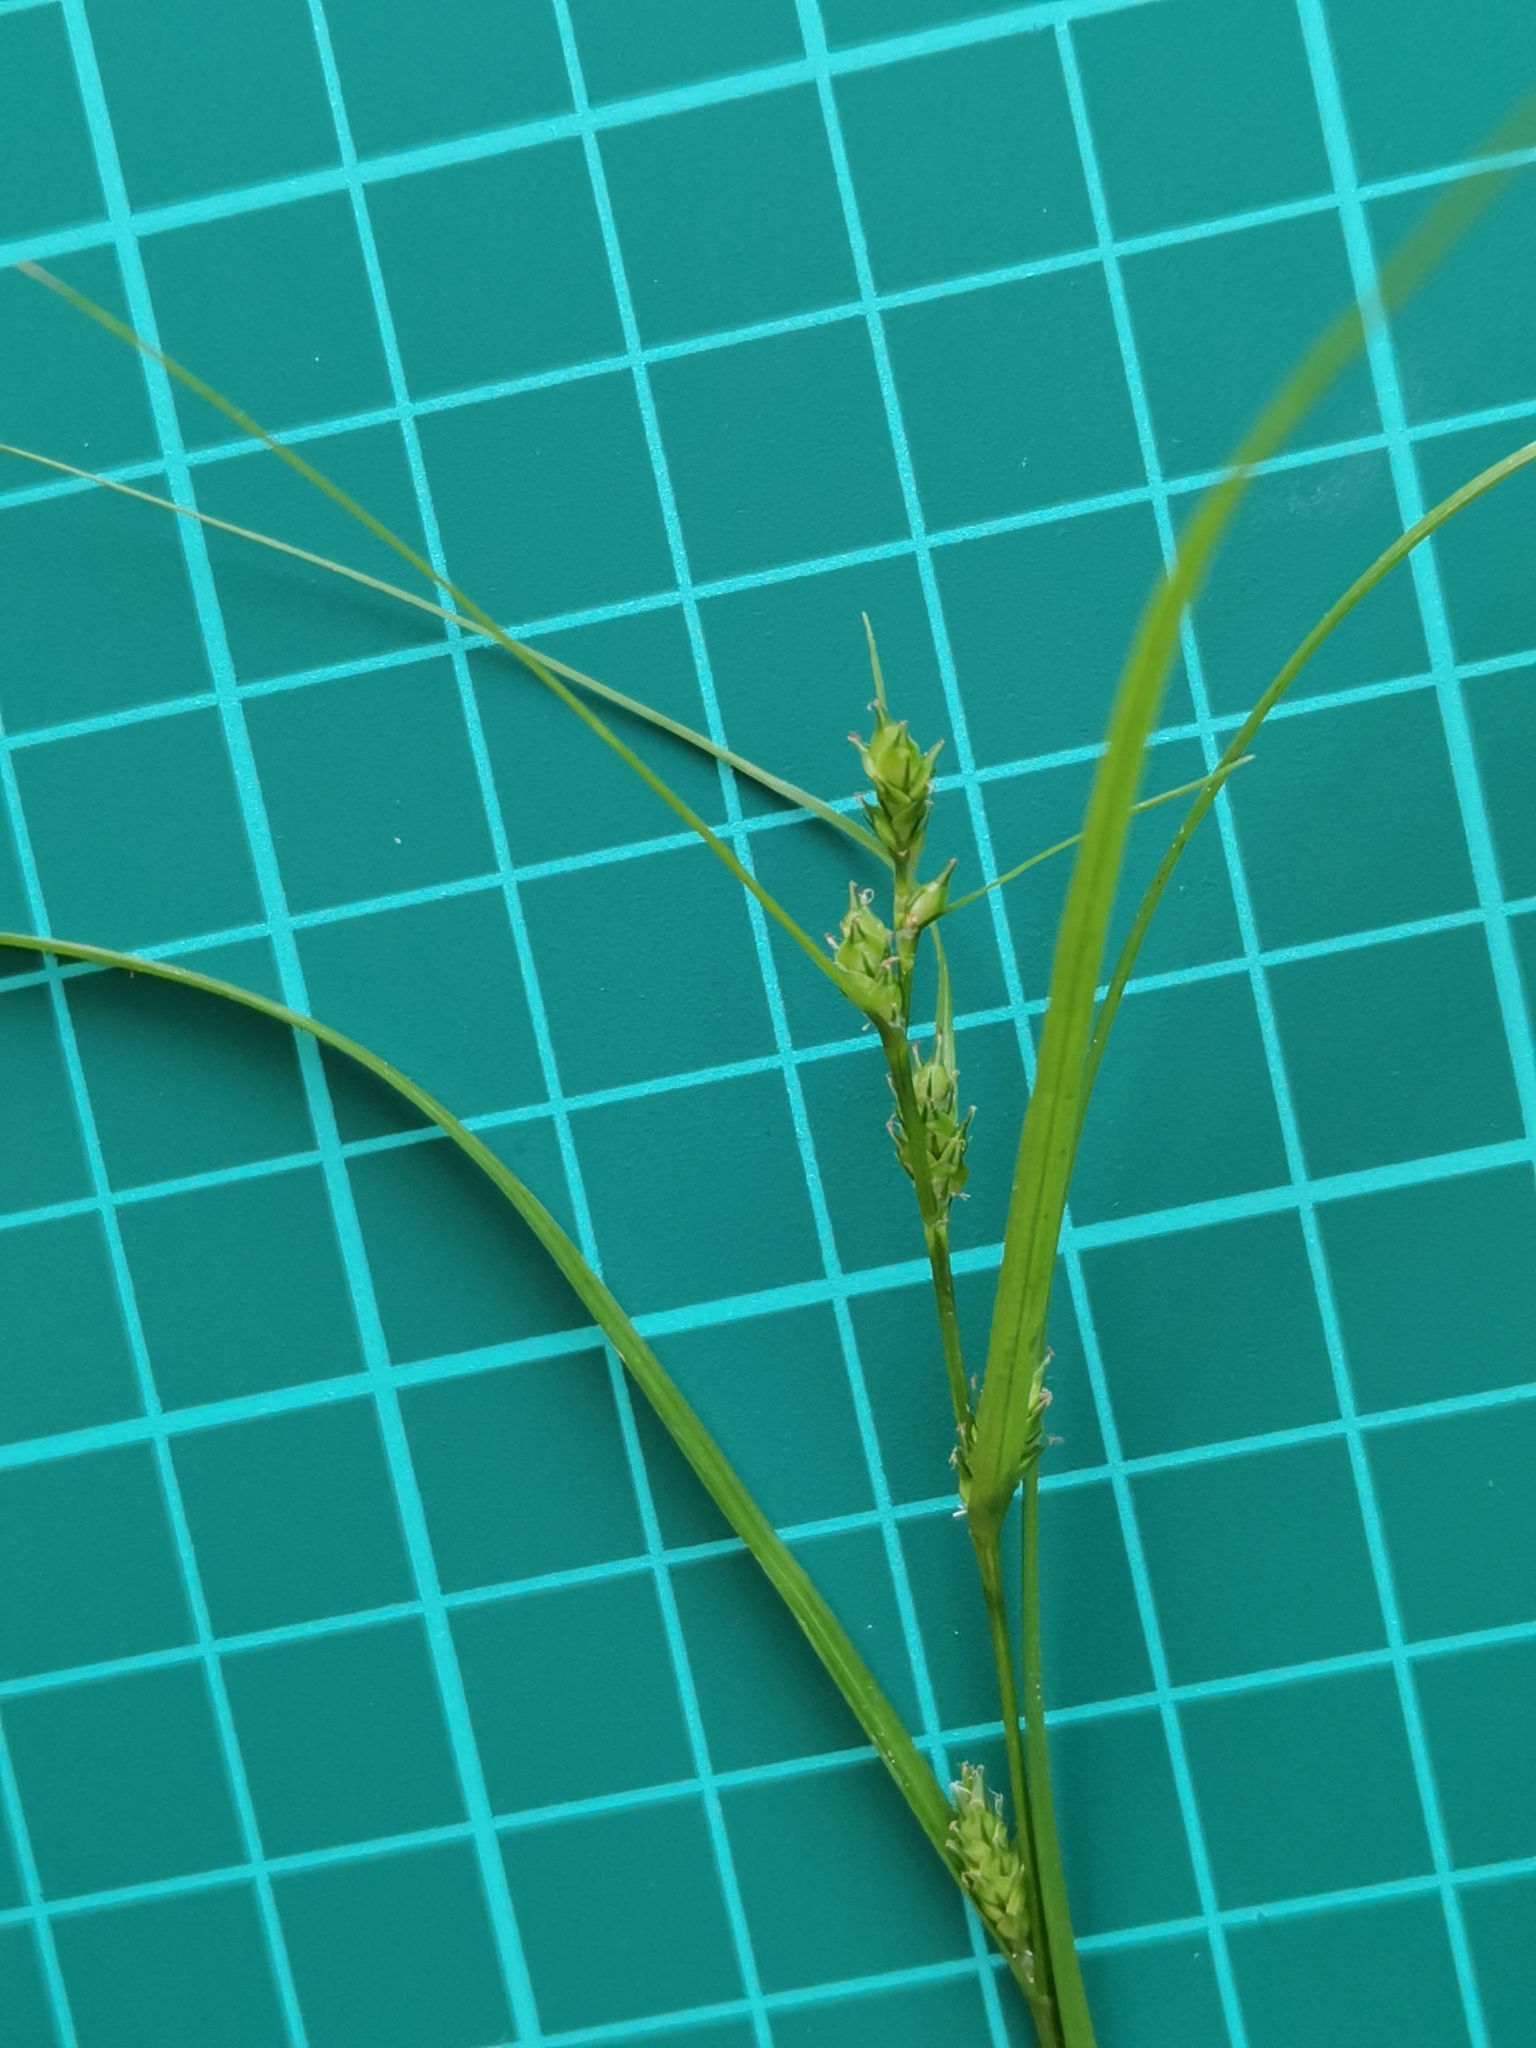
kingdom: Plantae
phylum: Tracheophyta
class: Liliopsida
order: Poales
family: Cyperaceae
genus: Carex
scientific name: Carex gibba
